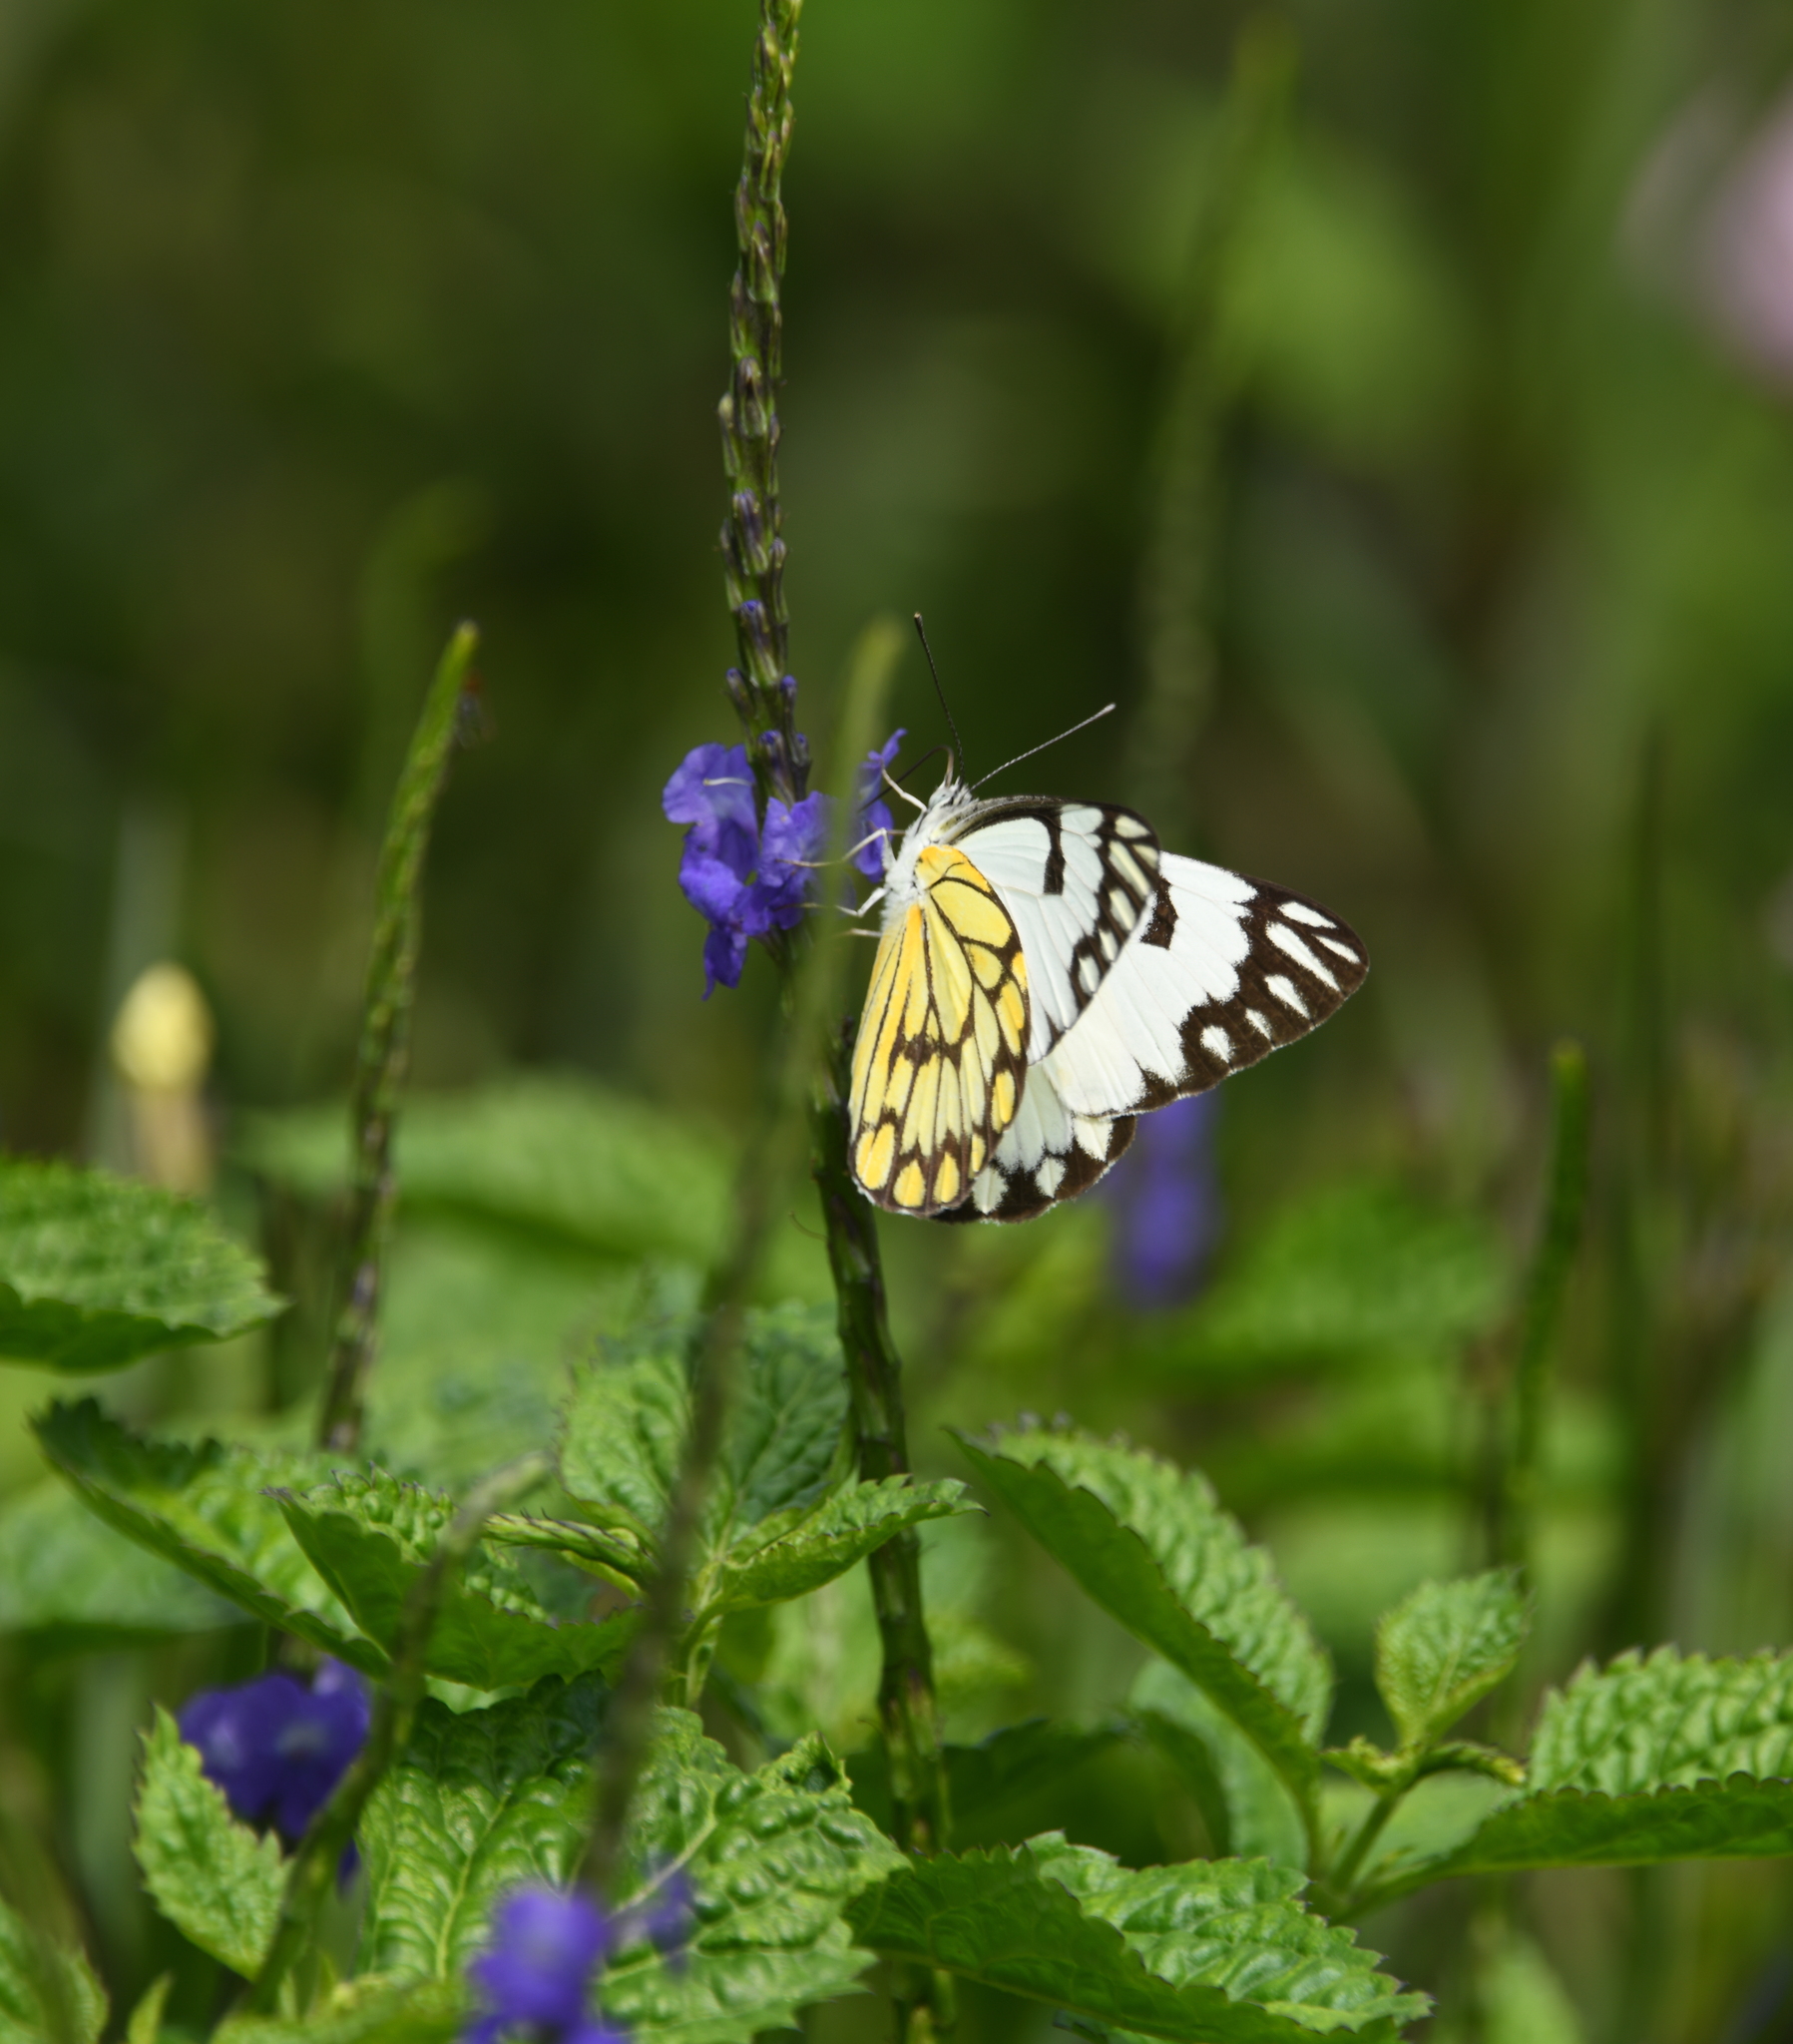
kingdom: Animalia
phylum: Arthropoda
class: Insecta
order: Lepidoptera
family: Pieridae
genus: Belenois
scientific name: Belenois aurota
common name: Brown-veined white
